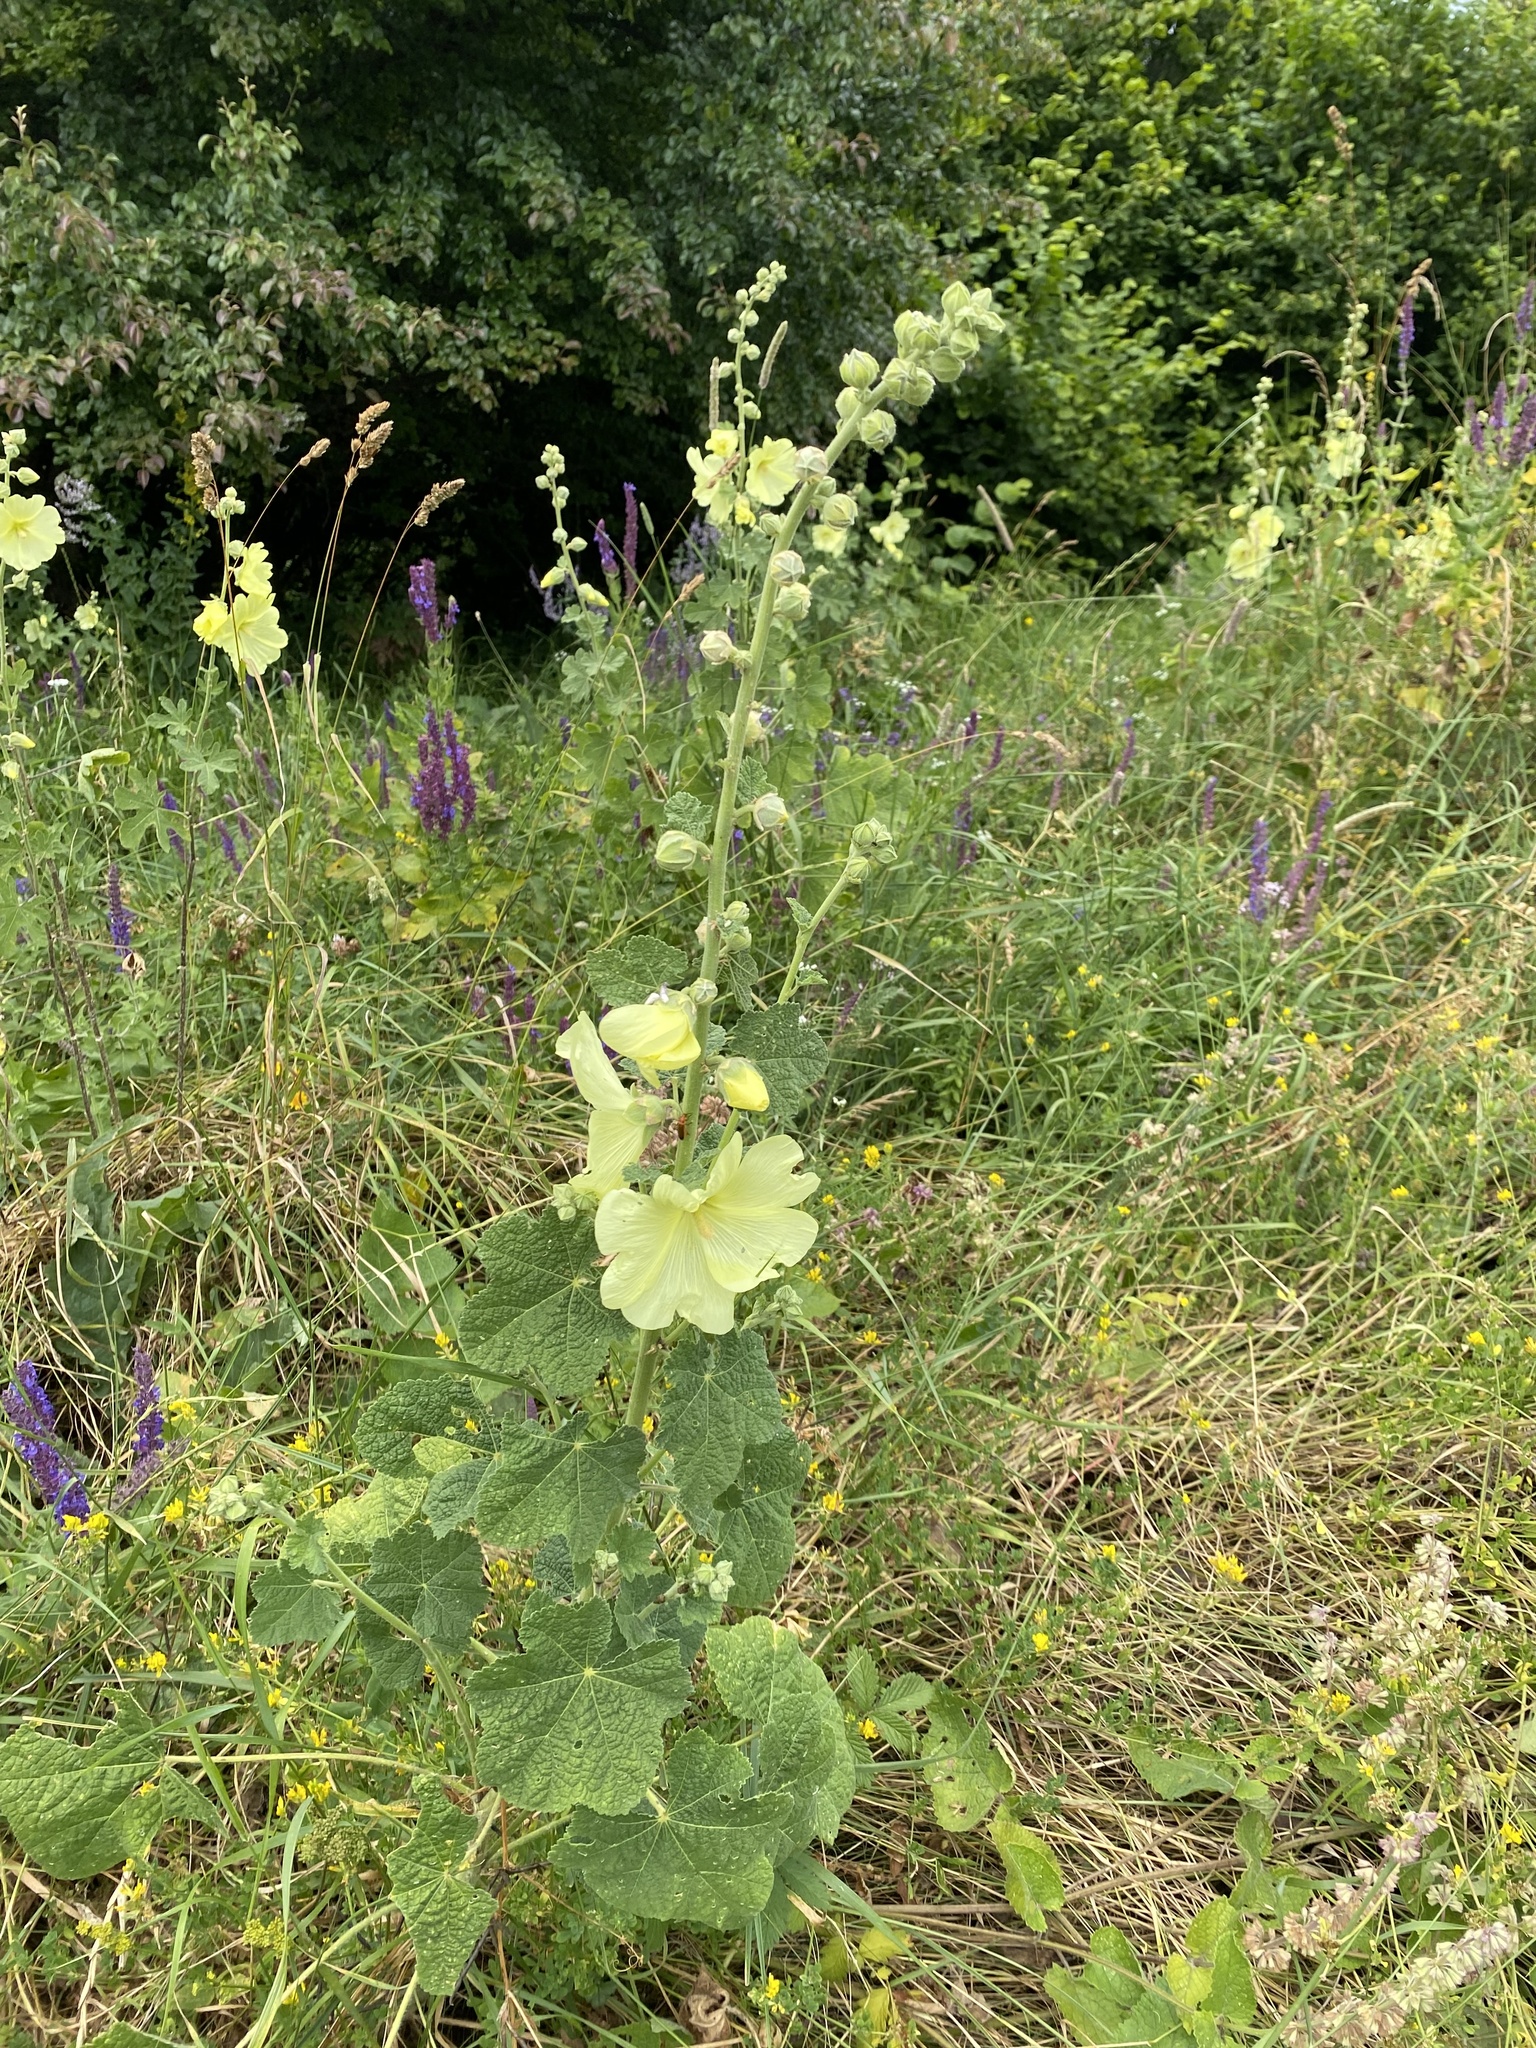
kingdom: Plantae
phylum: Tracheophyta
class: Magnoliopsida
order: Malvales
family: Malvaceae
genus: Alcea
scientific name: Alcea rugosa
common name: Russian hollyhock
